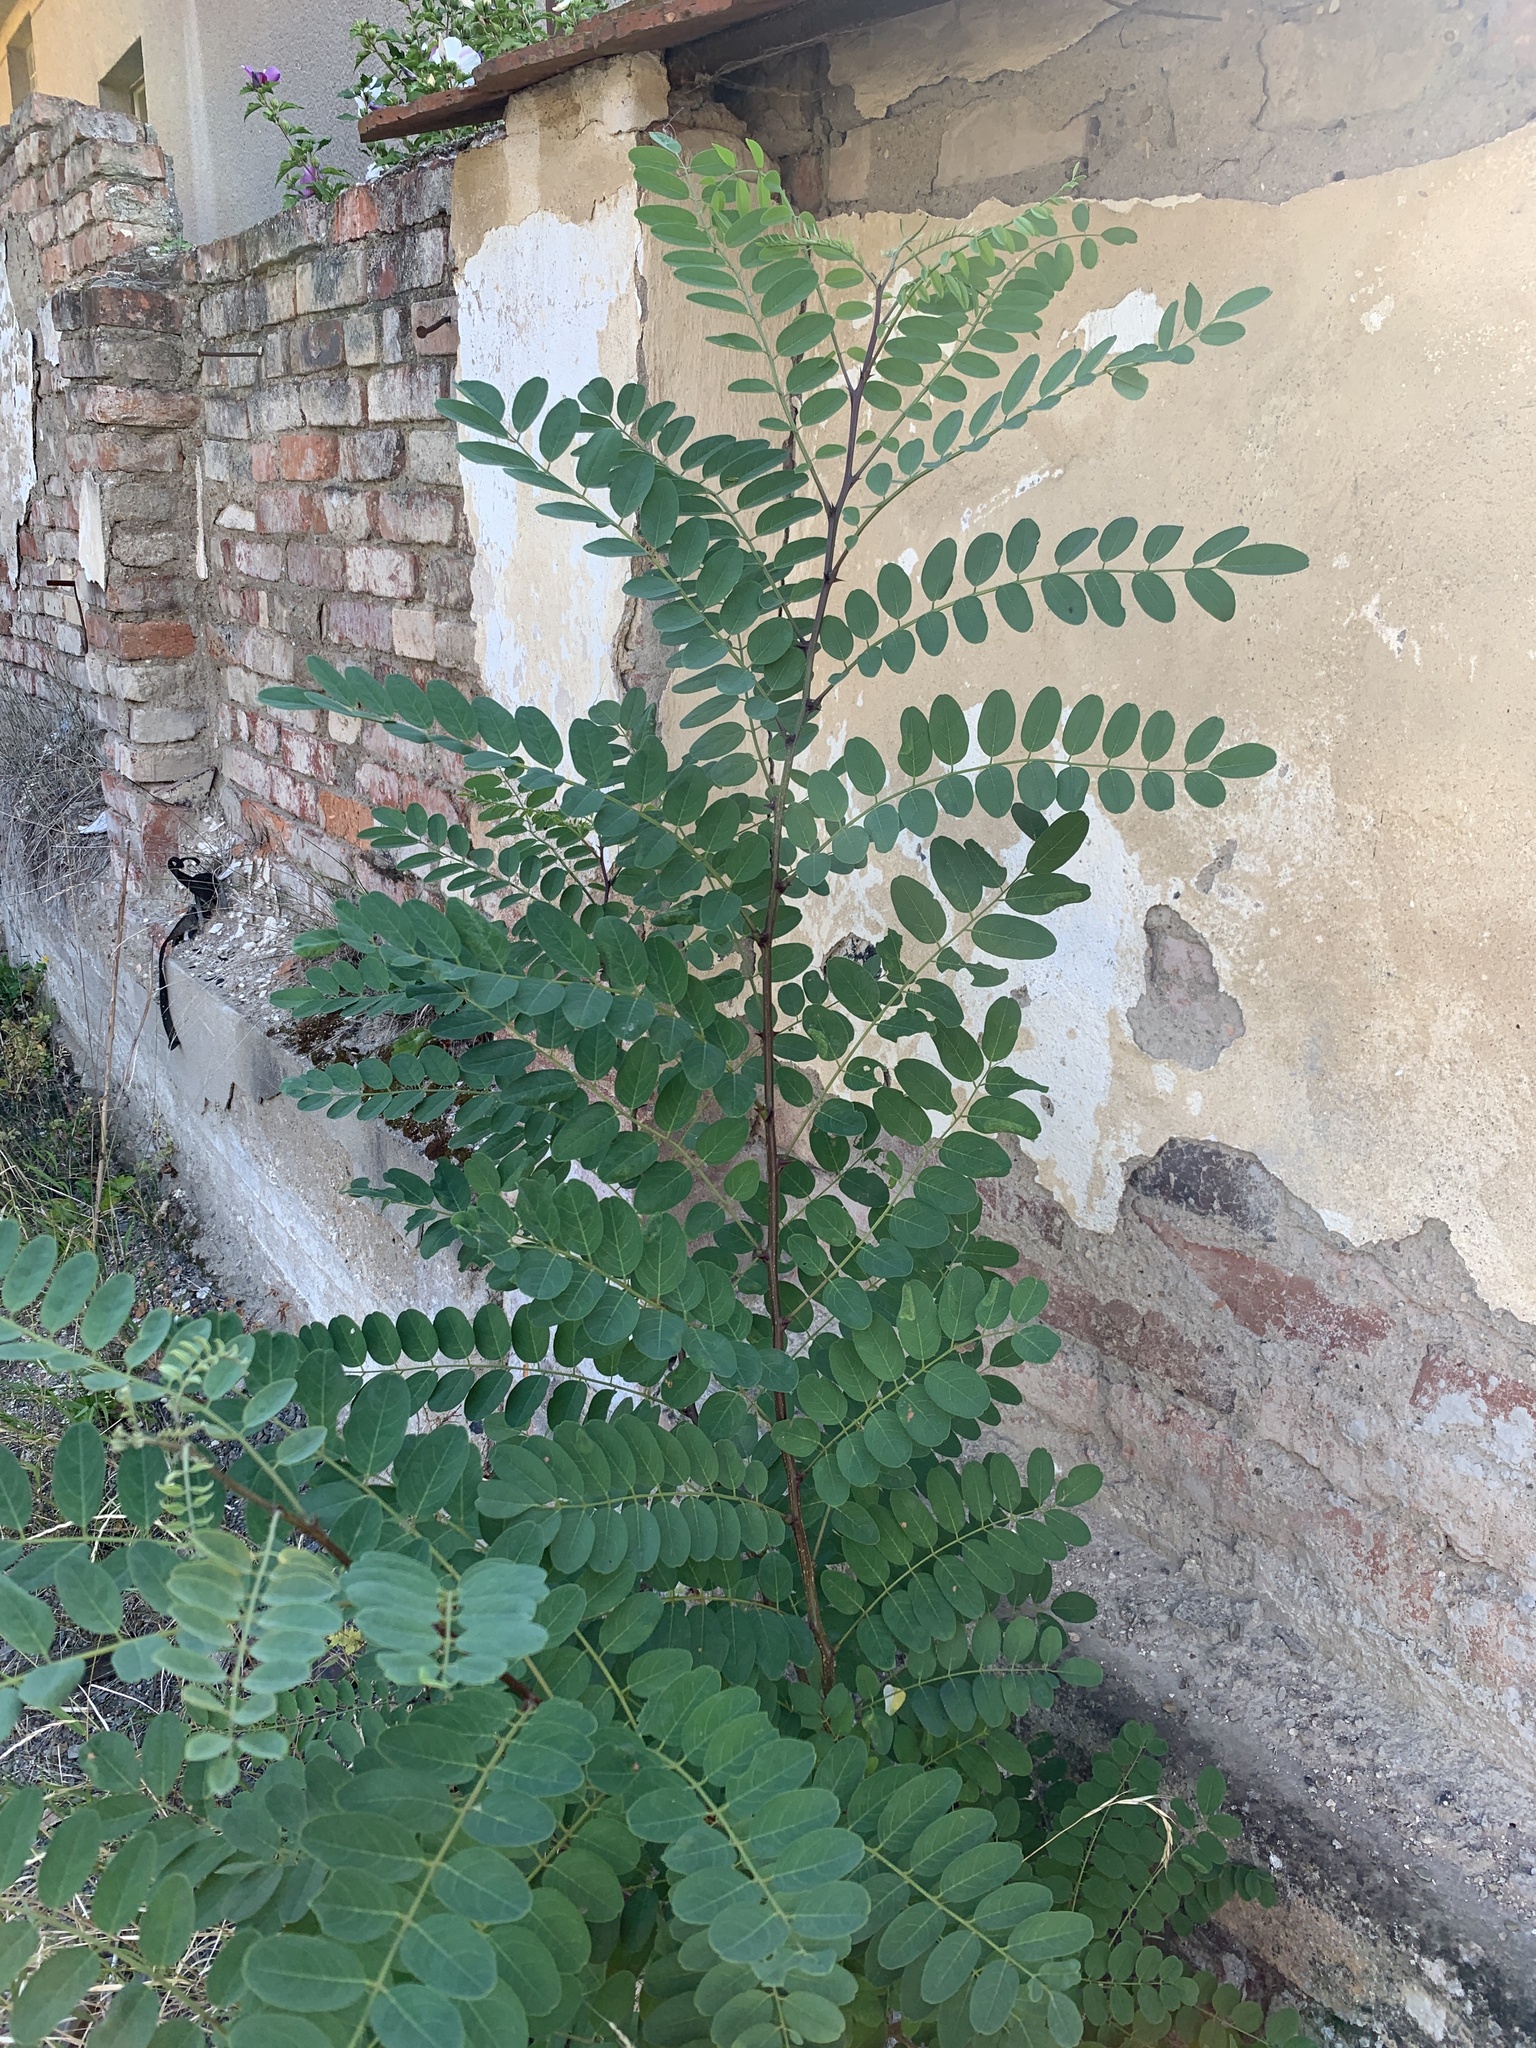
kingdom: Plantae
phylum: Tracheophyta
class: Magnoliopsida
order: Fabales
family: Fabaceae
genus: Robinia
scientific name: Robinia pseudoacacia
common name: Black locust
